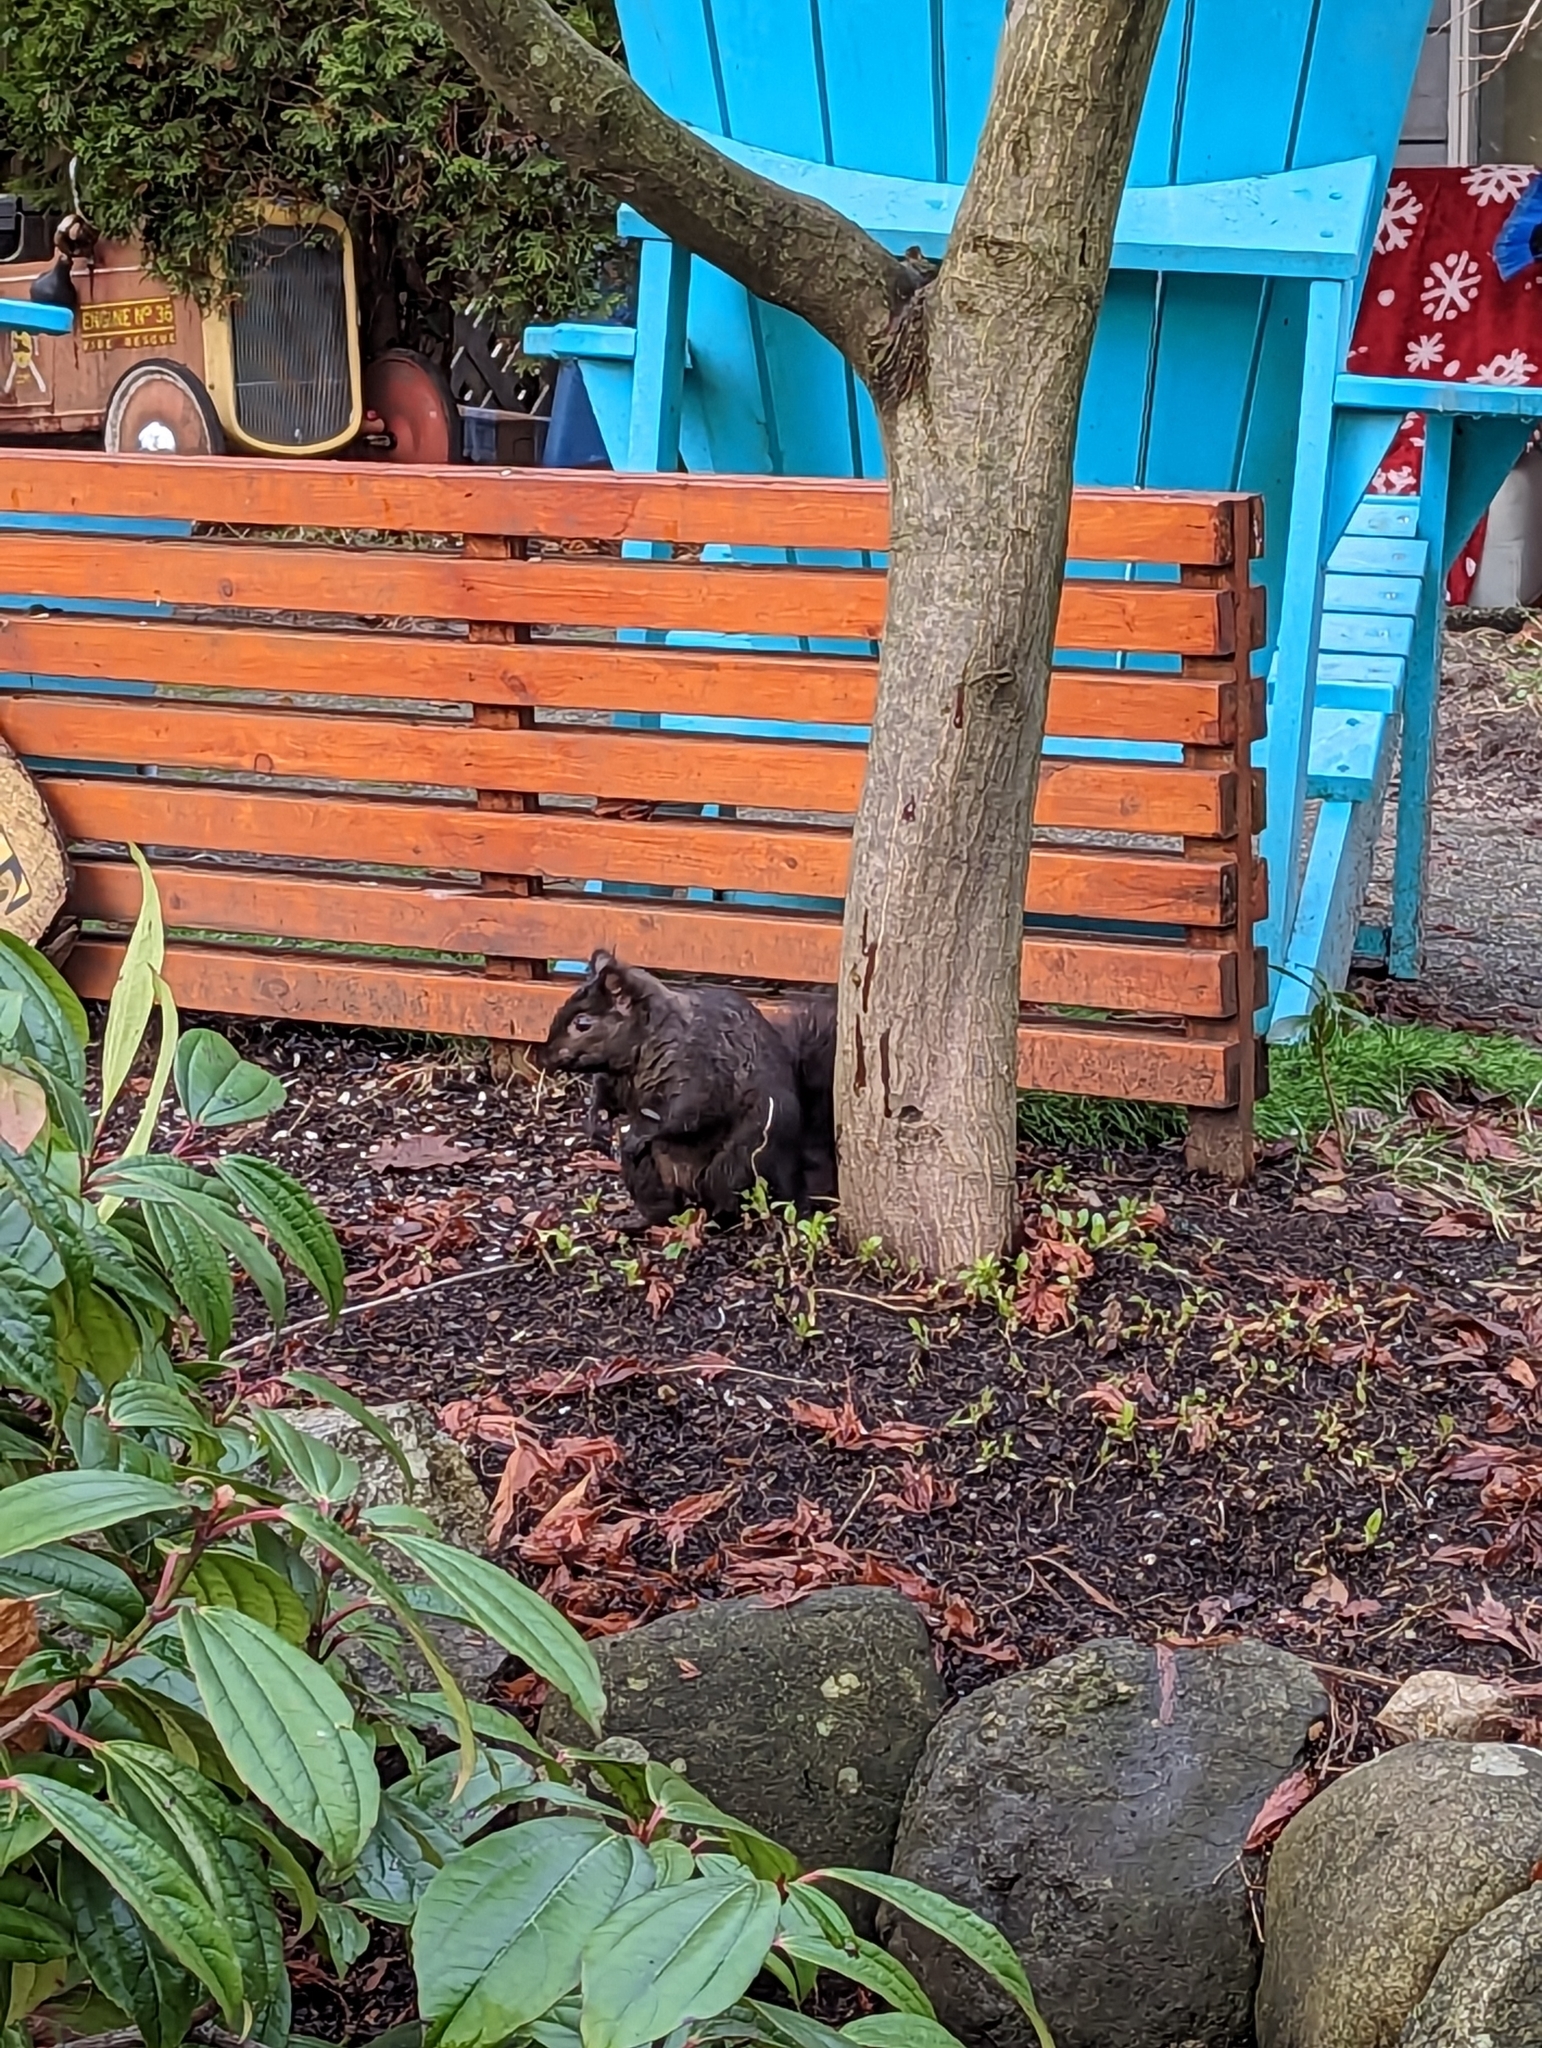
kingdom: Animalia
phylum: Chordata
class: Mammalia
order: Rodentia
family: Sciuridae
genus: Sciurus
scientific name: Sciurus carolinensis
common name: Eastern gray squirrel
